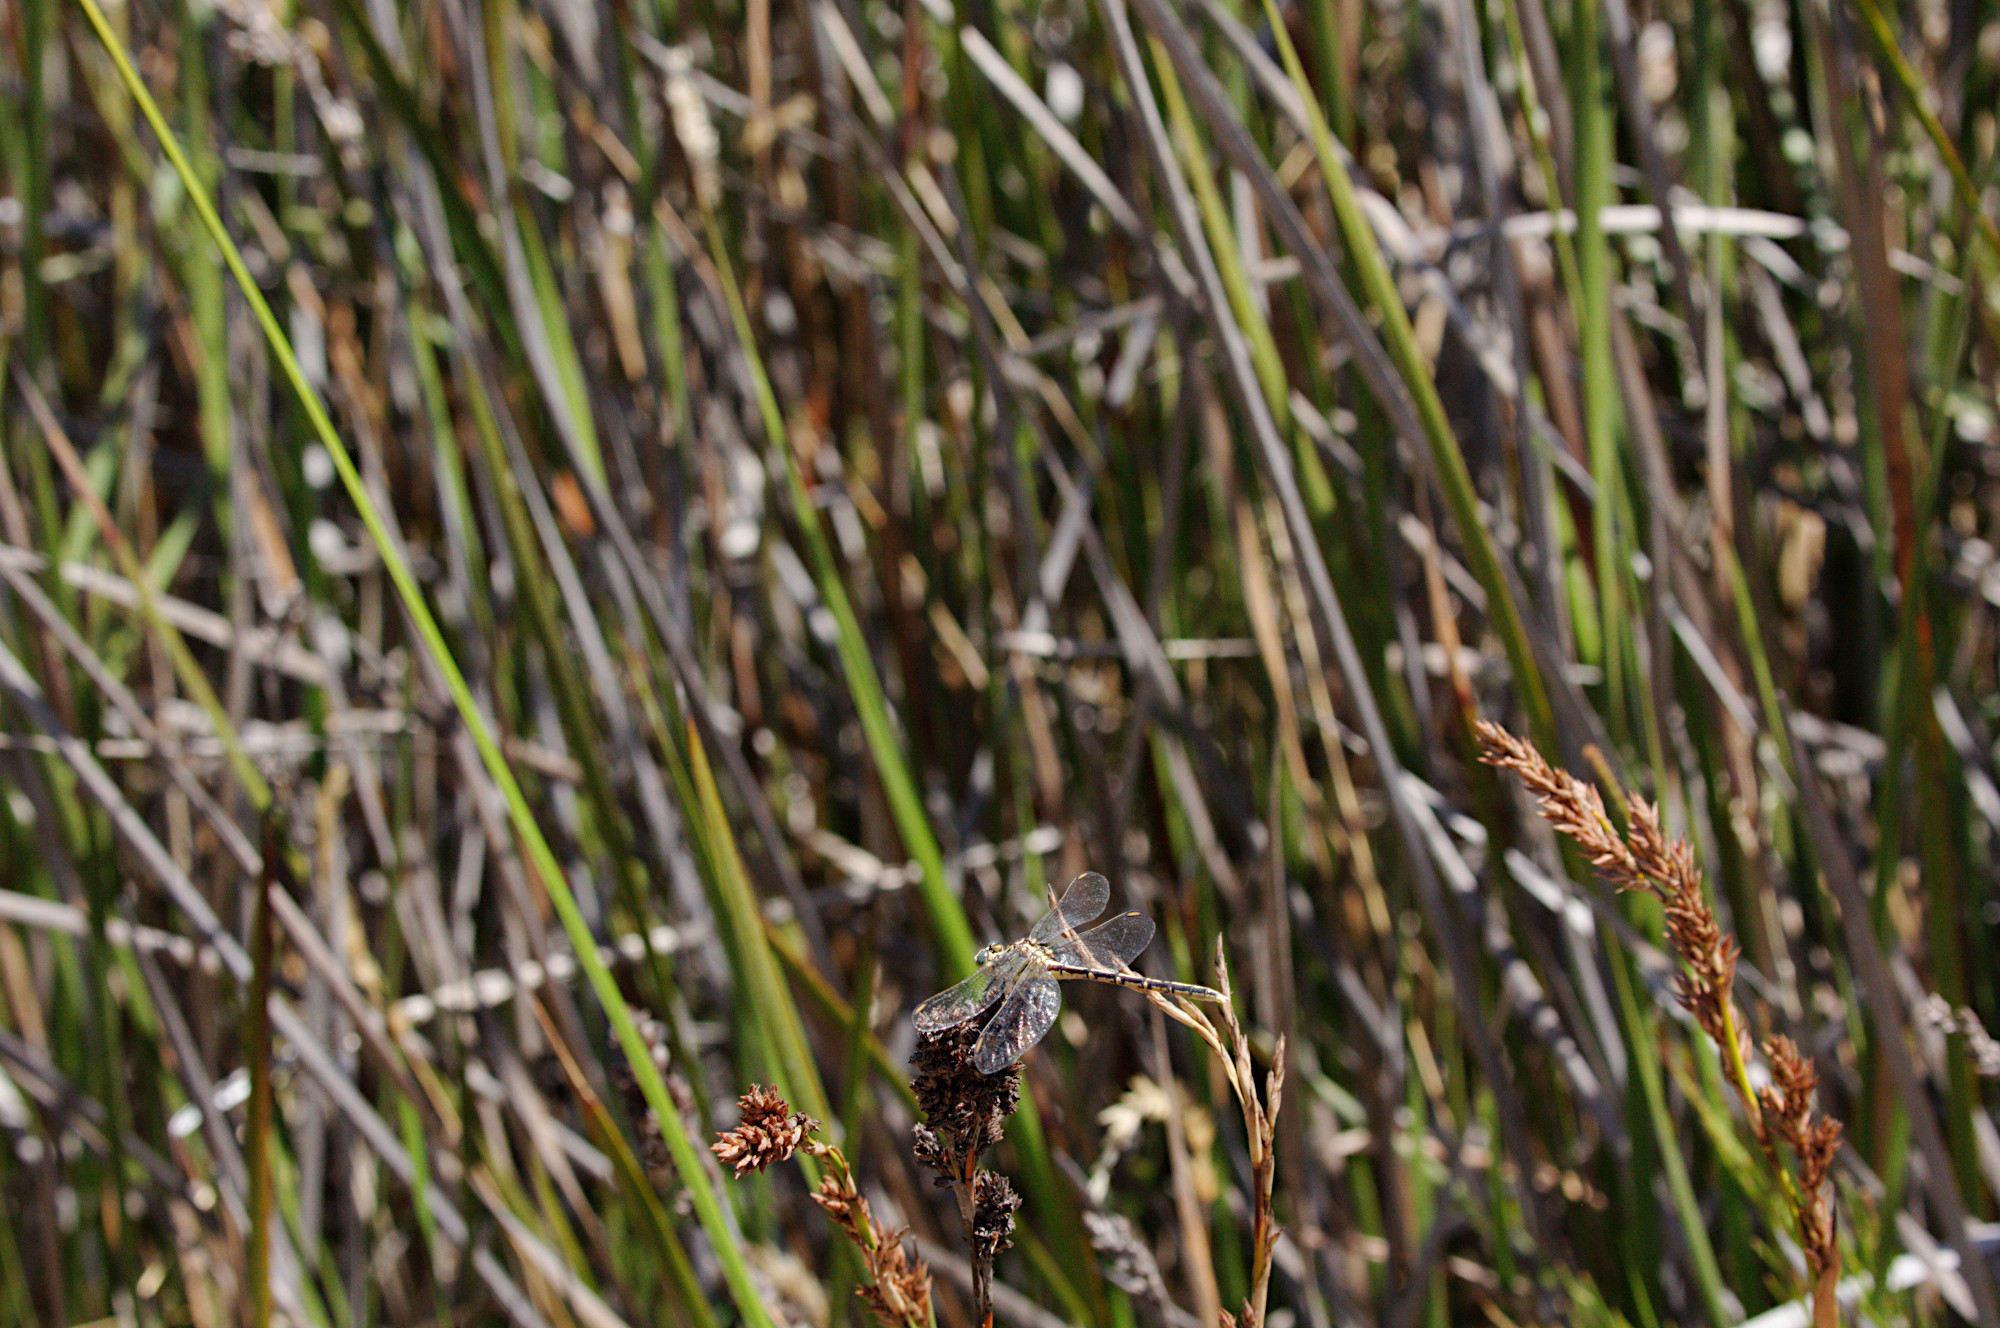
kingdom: Animalia
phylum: Arthropoda
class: Insecta
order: Odonata
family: Gomphidae
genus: Austrogomphus
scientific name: Austrogomphus guerini
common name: Yellow-striped hunter
